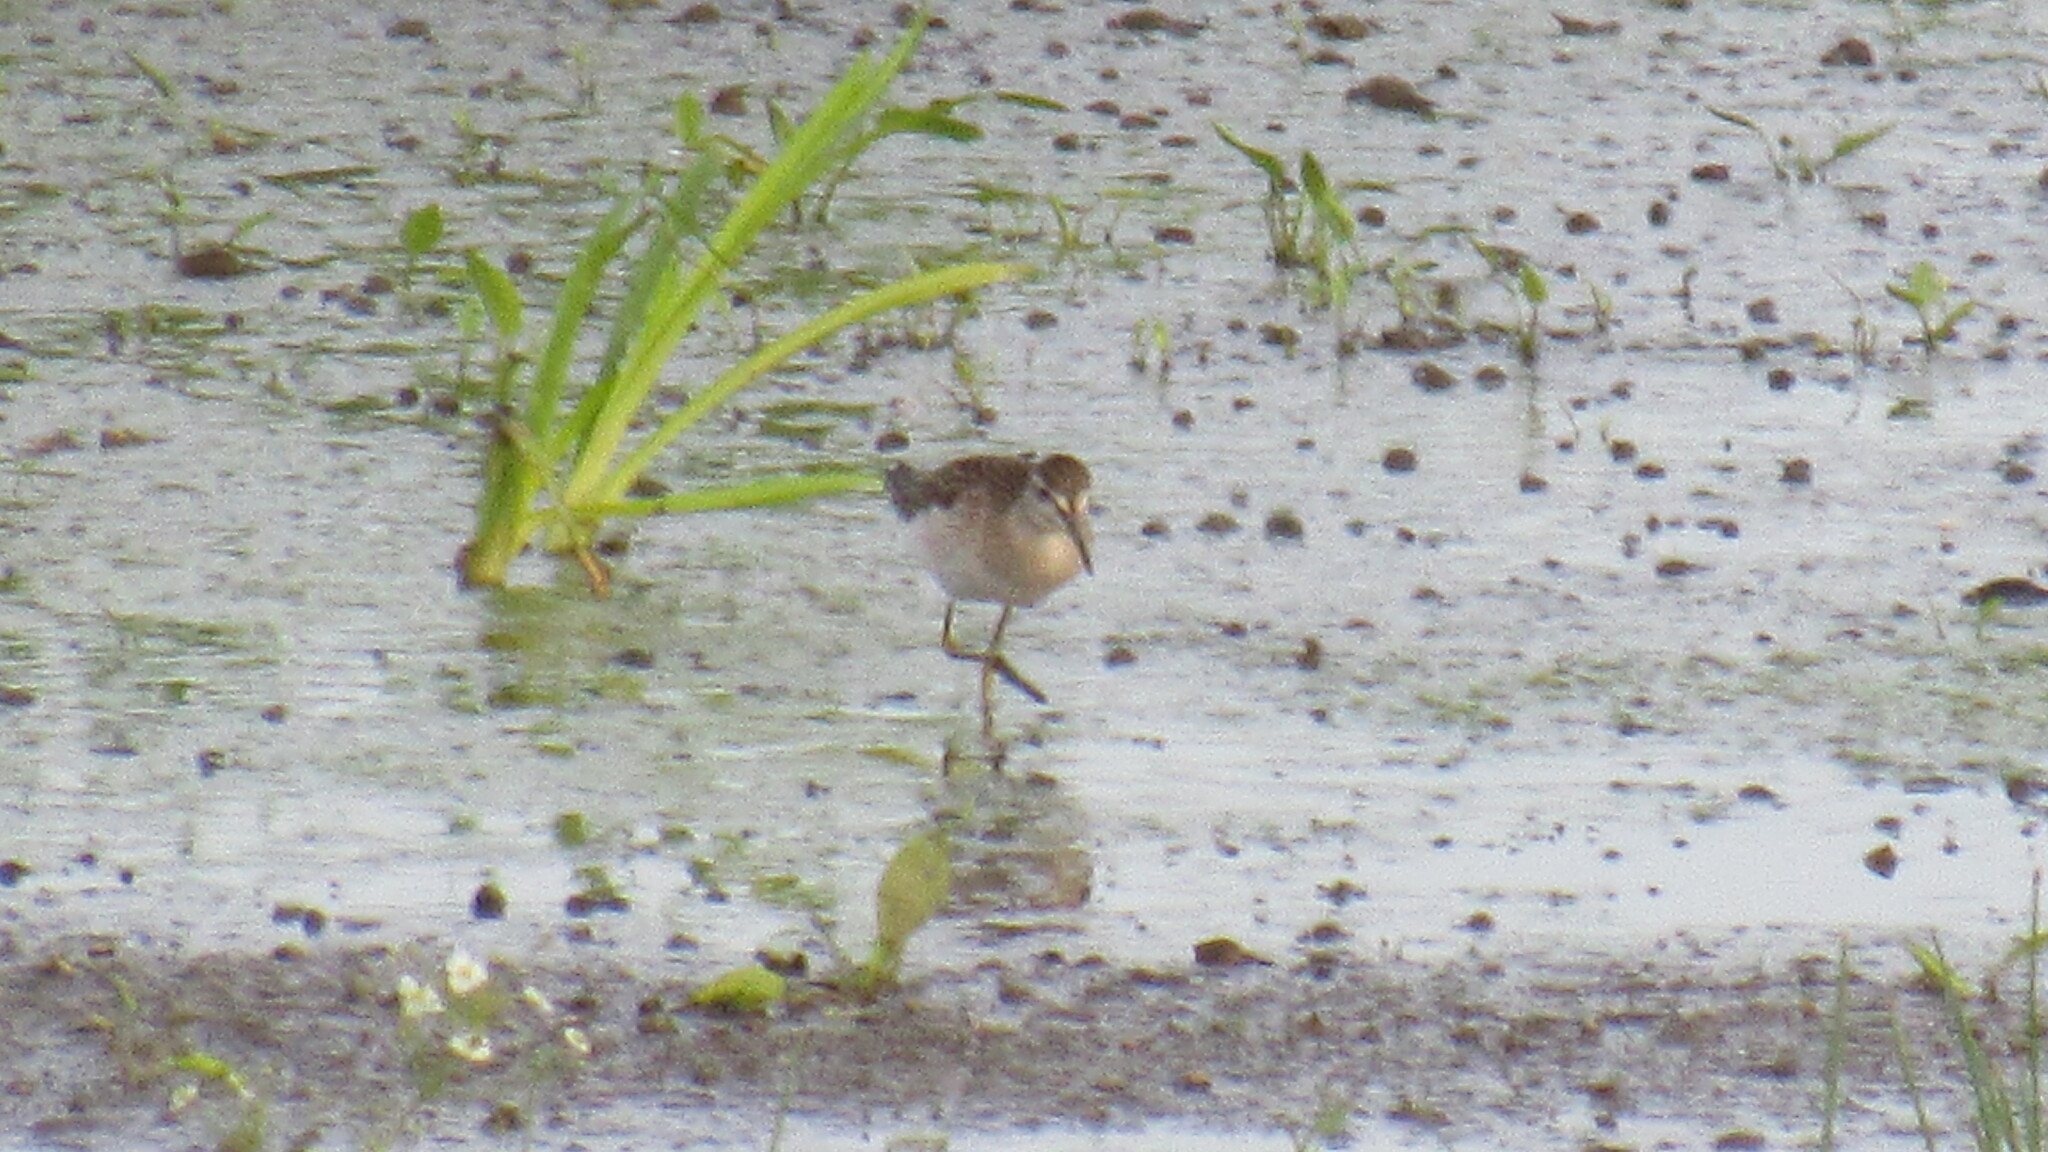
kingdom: Animalia
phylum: Chordata
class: Aves
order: Charadriiformes
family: Scolopacidae
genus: Tringa
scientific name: Tringa glareola
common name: Wood sandpiper
